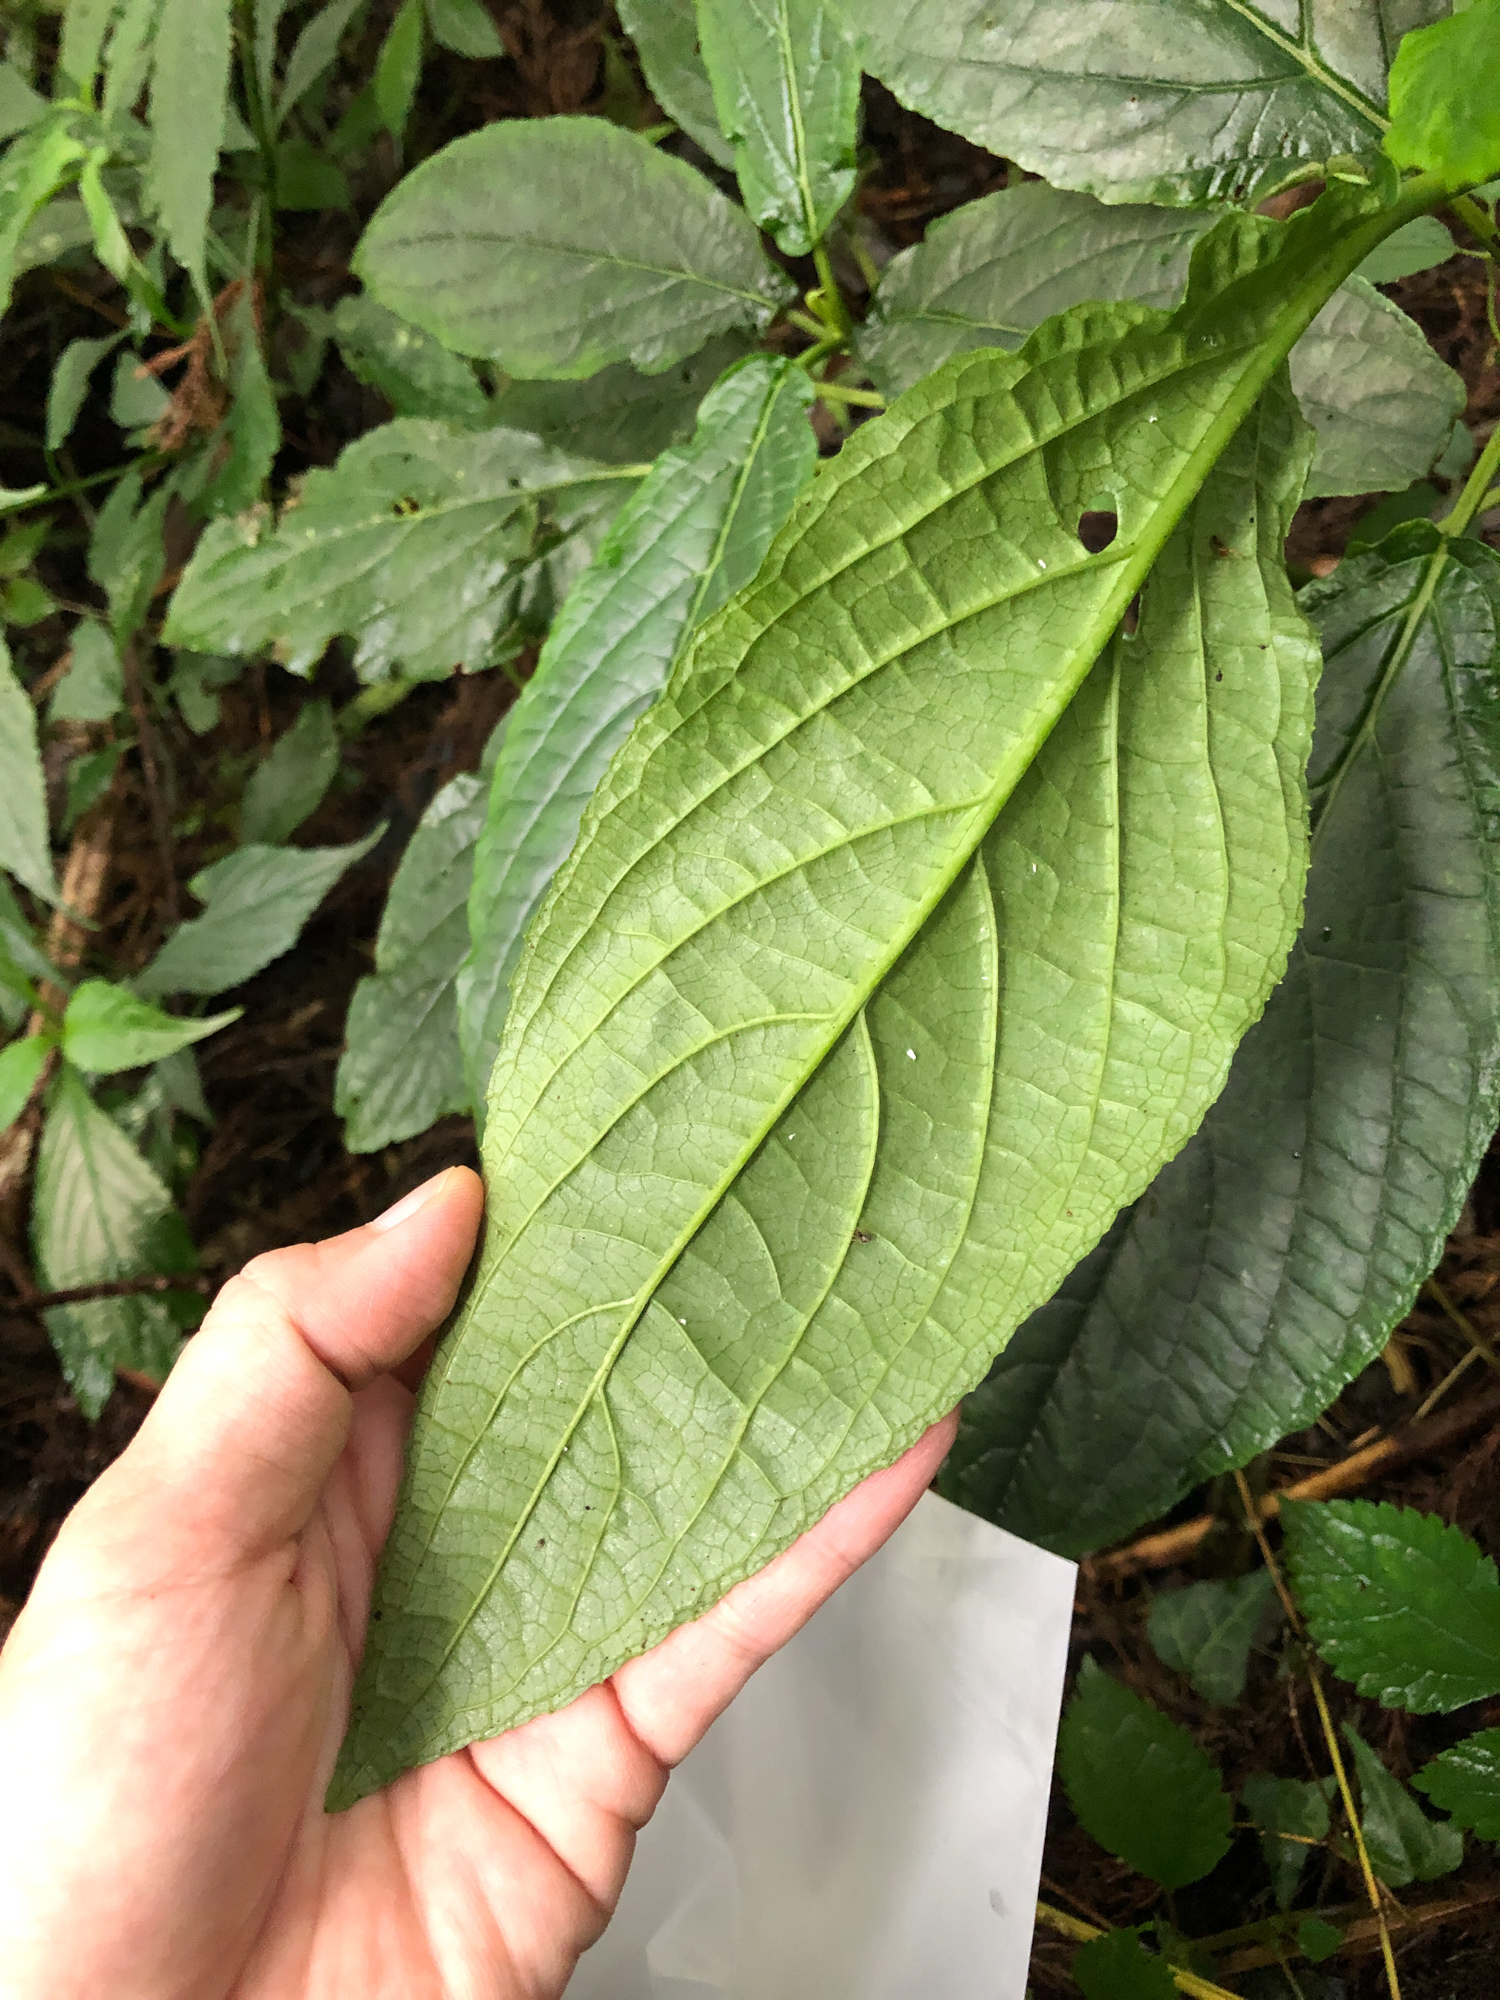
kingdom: Plantae
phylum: Tracheophyta
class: Magnoliopsida
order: Lamiales
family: Lamiaceae
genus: Paraphlomis
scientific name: Paraphlomis javanica
